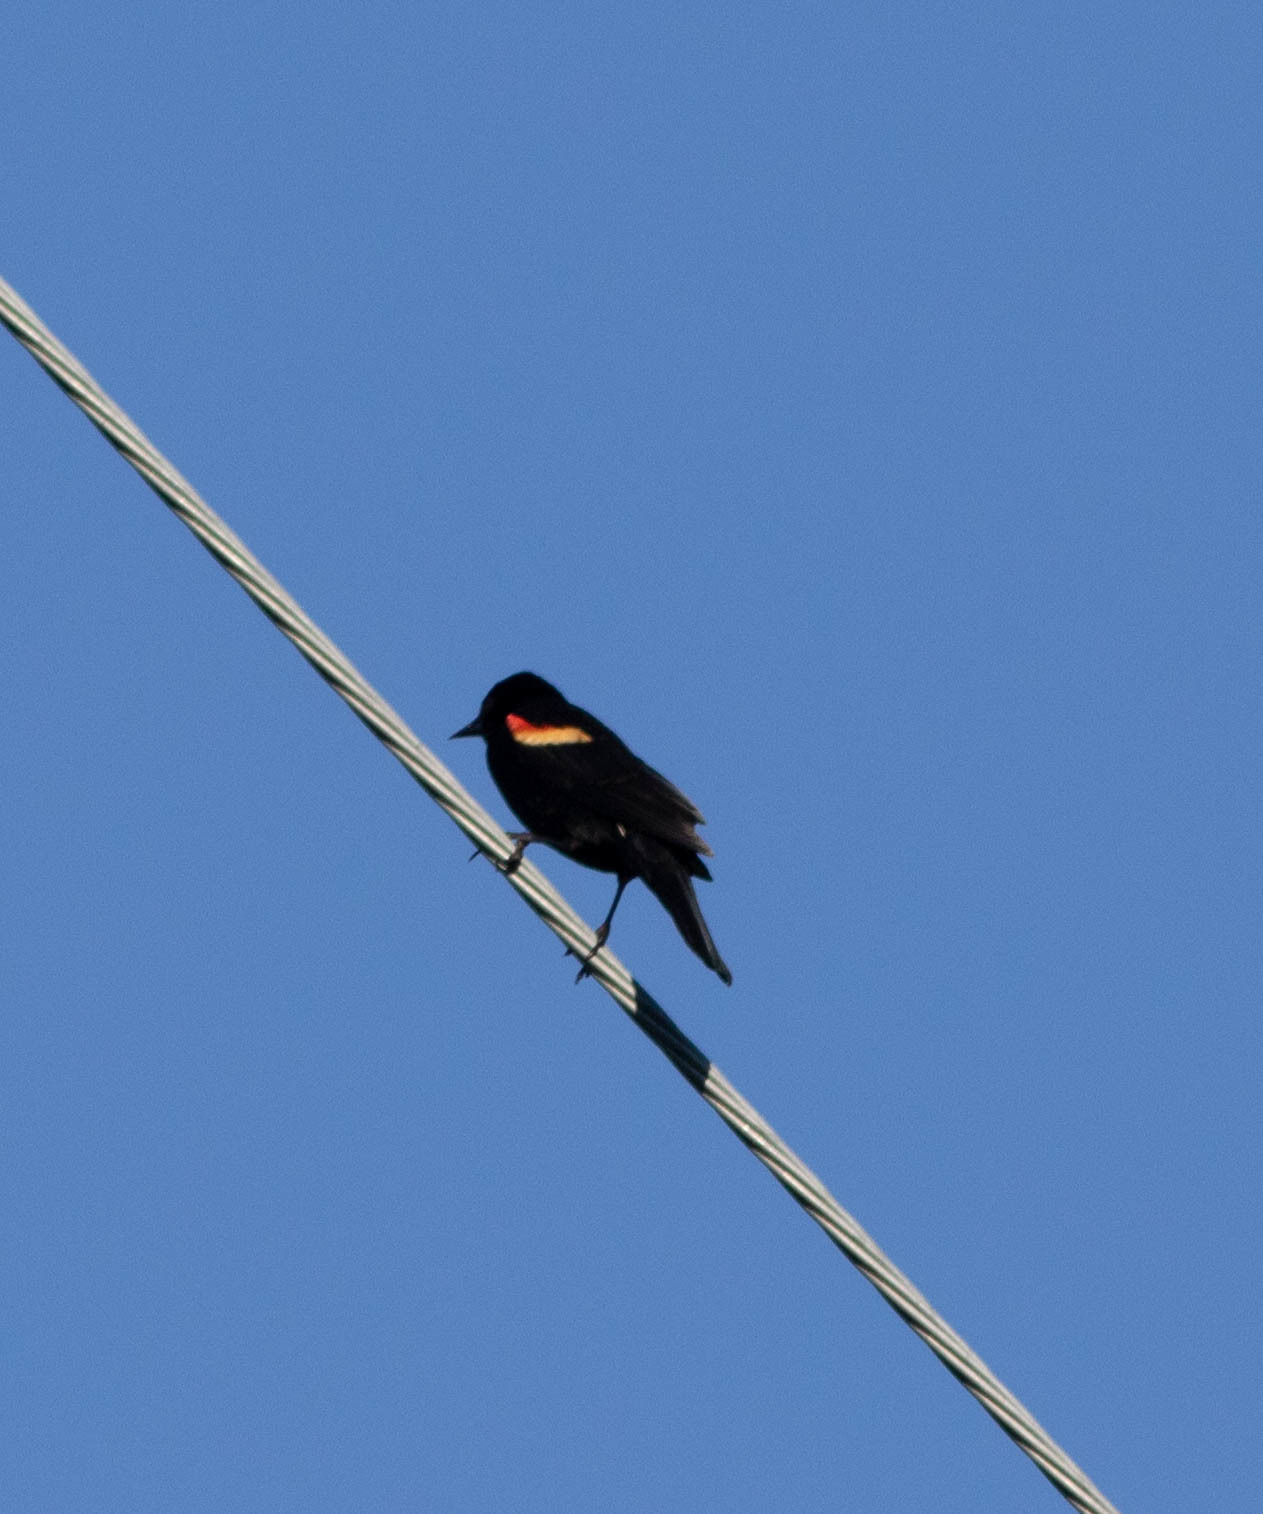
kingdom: Animalia
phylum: Chordata
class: Aves
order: Passeriformes
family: Icteridae
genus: Agelaius
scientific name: Agelaius phoeniceus
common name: Red-winged blackbird
